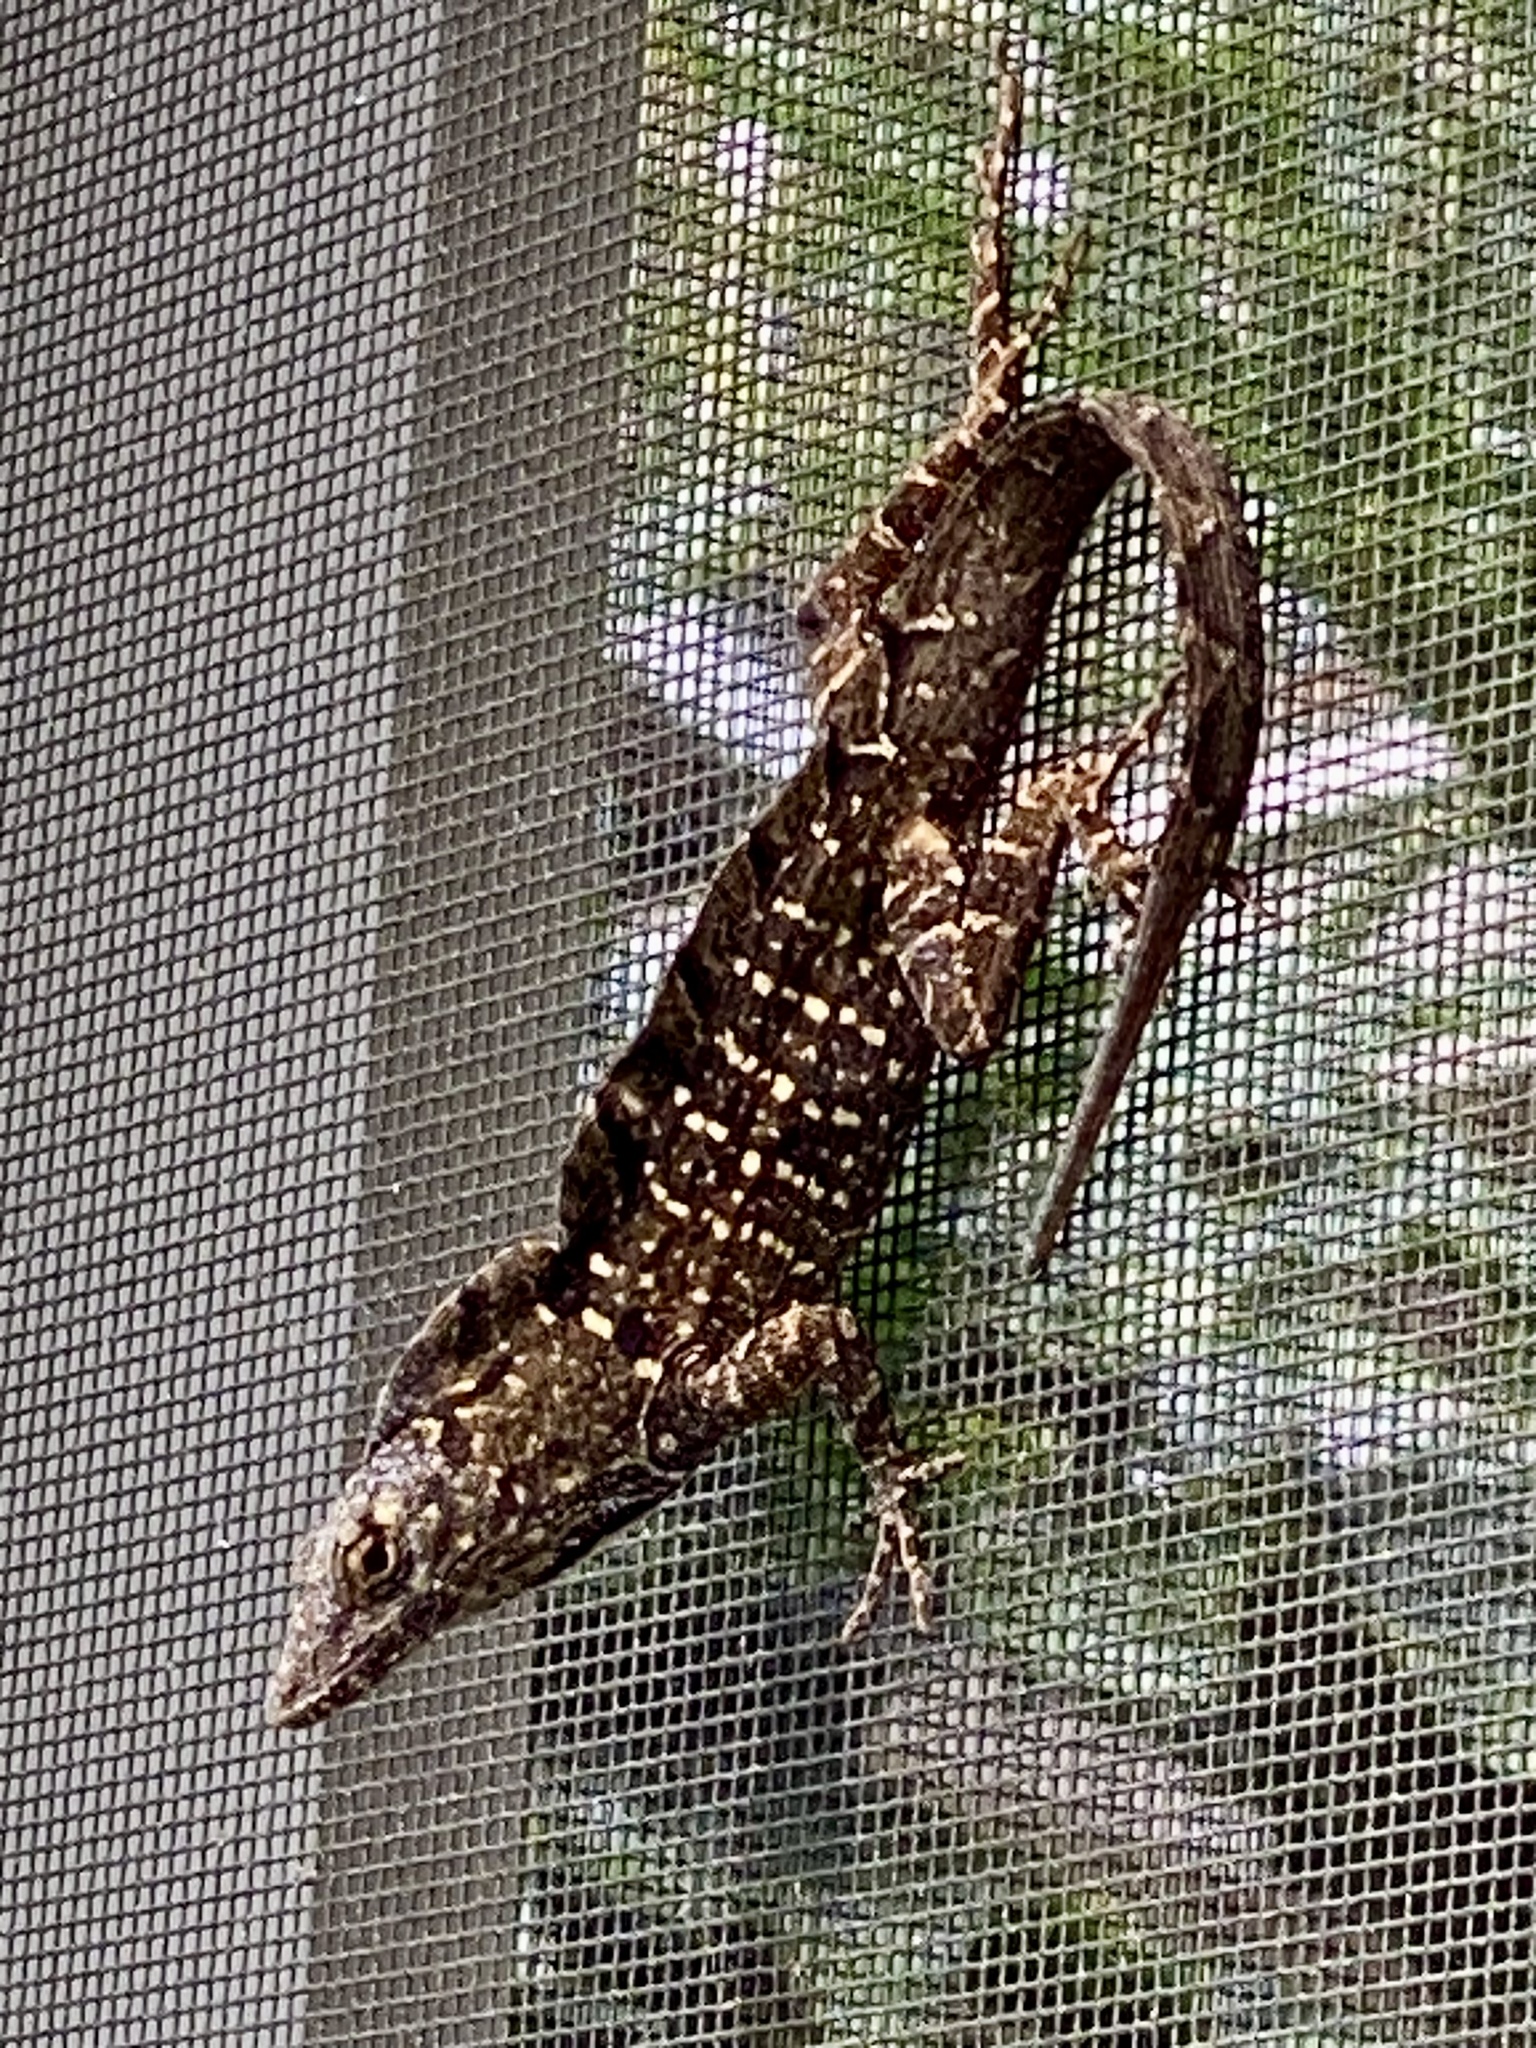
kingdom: Animalia
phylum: Chordata
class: Squamata
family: Dactyloidae
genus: Anolis
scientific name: Anolis sagrei
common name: Brown anole
